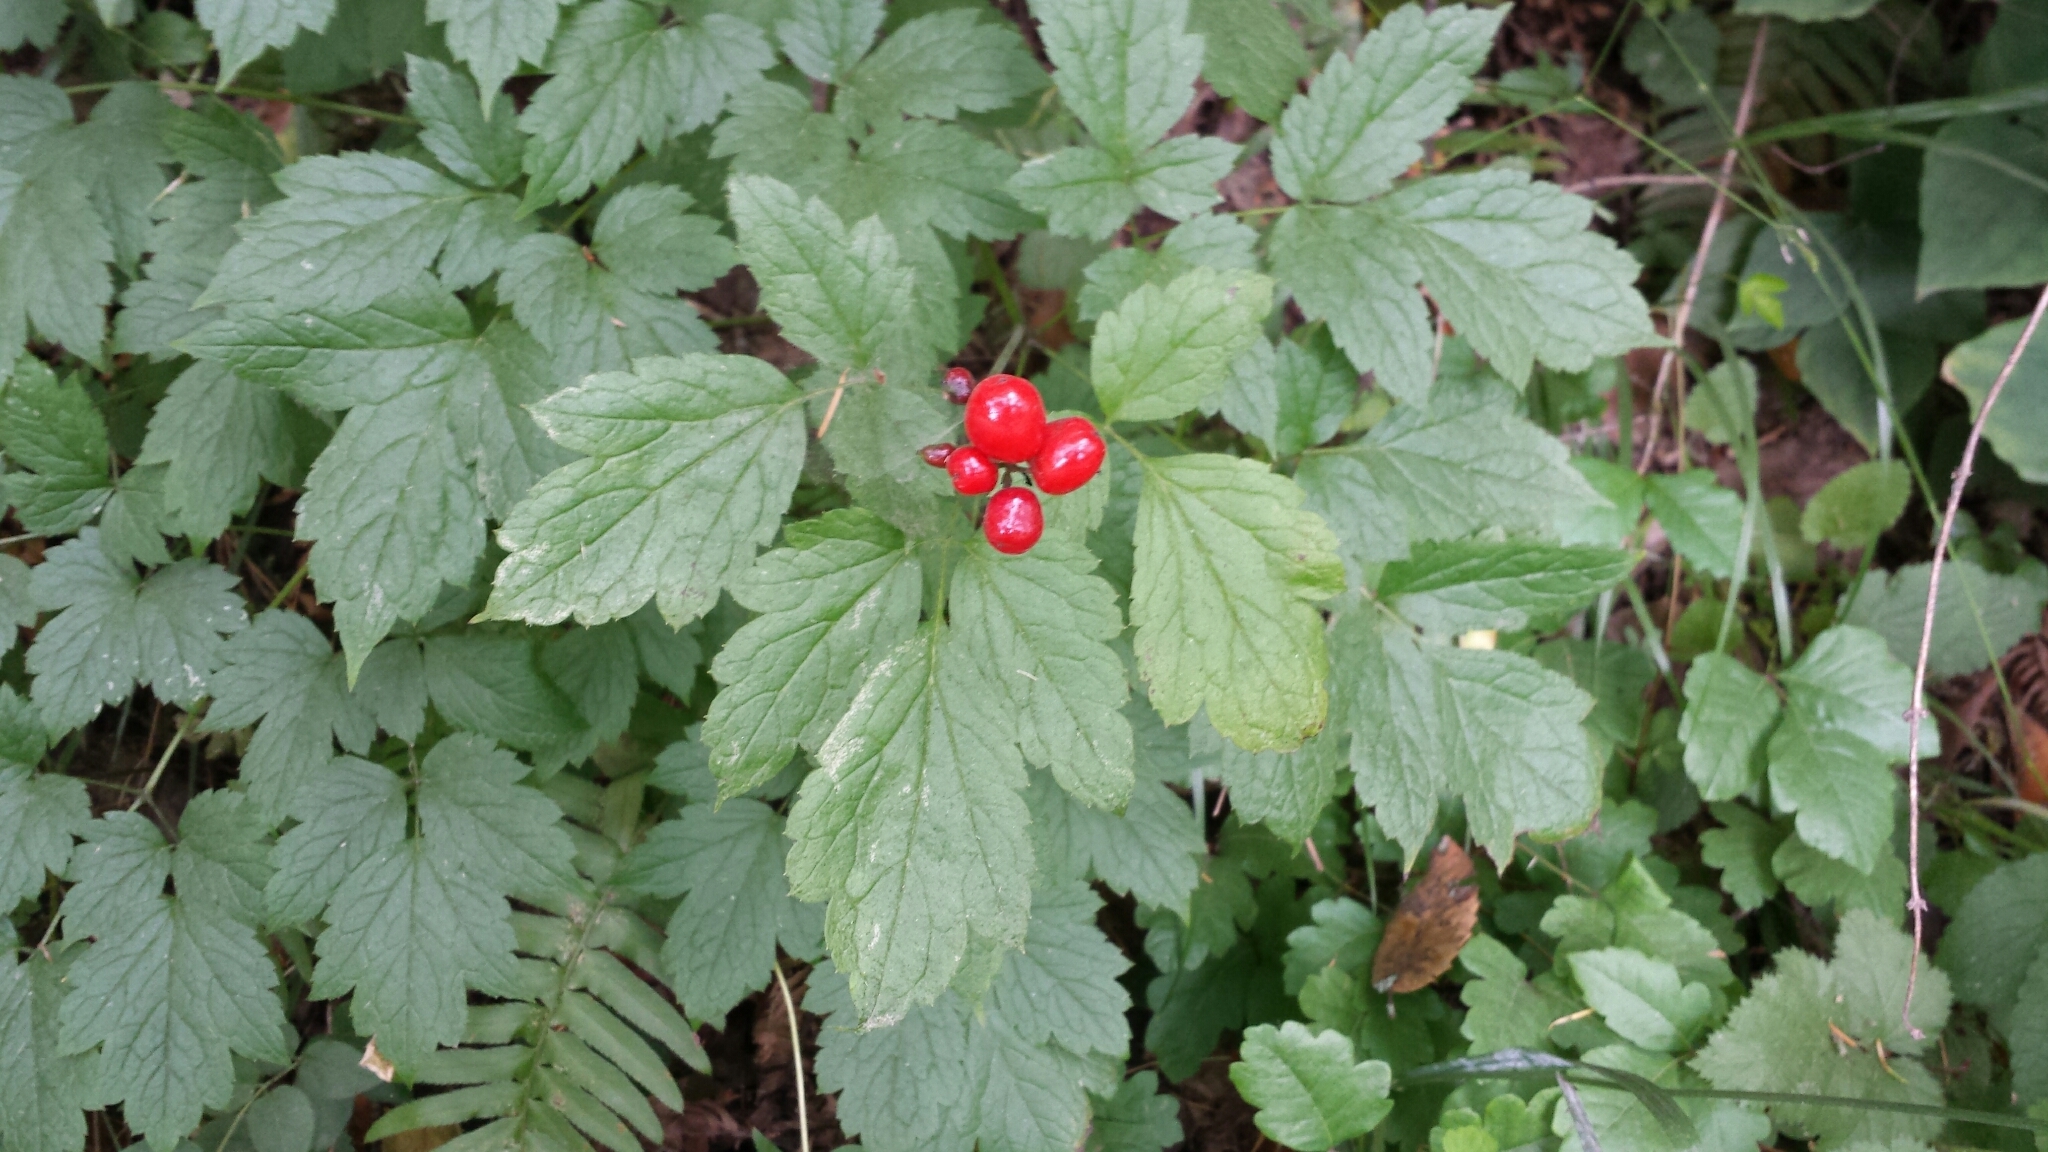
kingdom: Plantae
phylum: Tracheophyta
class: Magnoliopsida
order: Ranunculales
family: Ranunculaceae
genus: Actaea
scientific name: Actaea rubra
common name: Red baneberry
